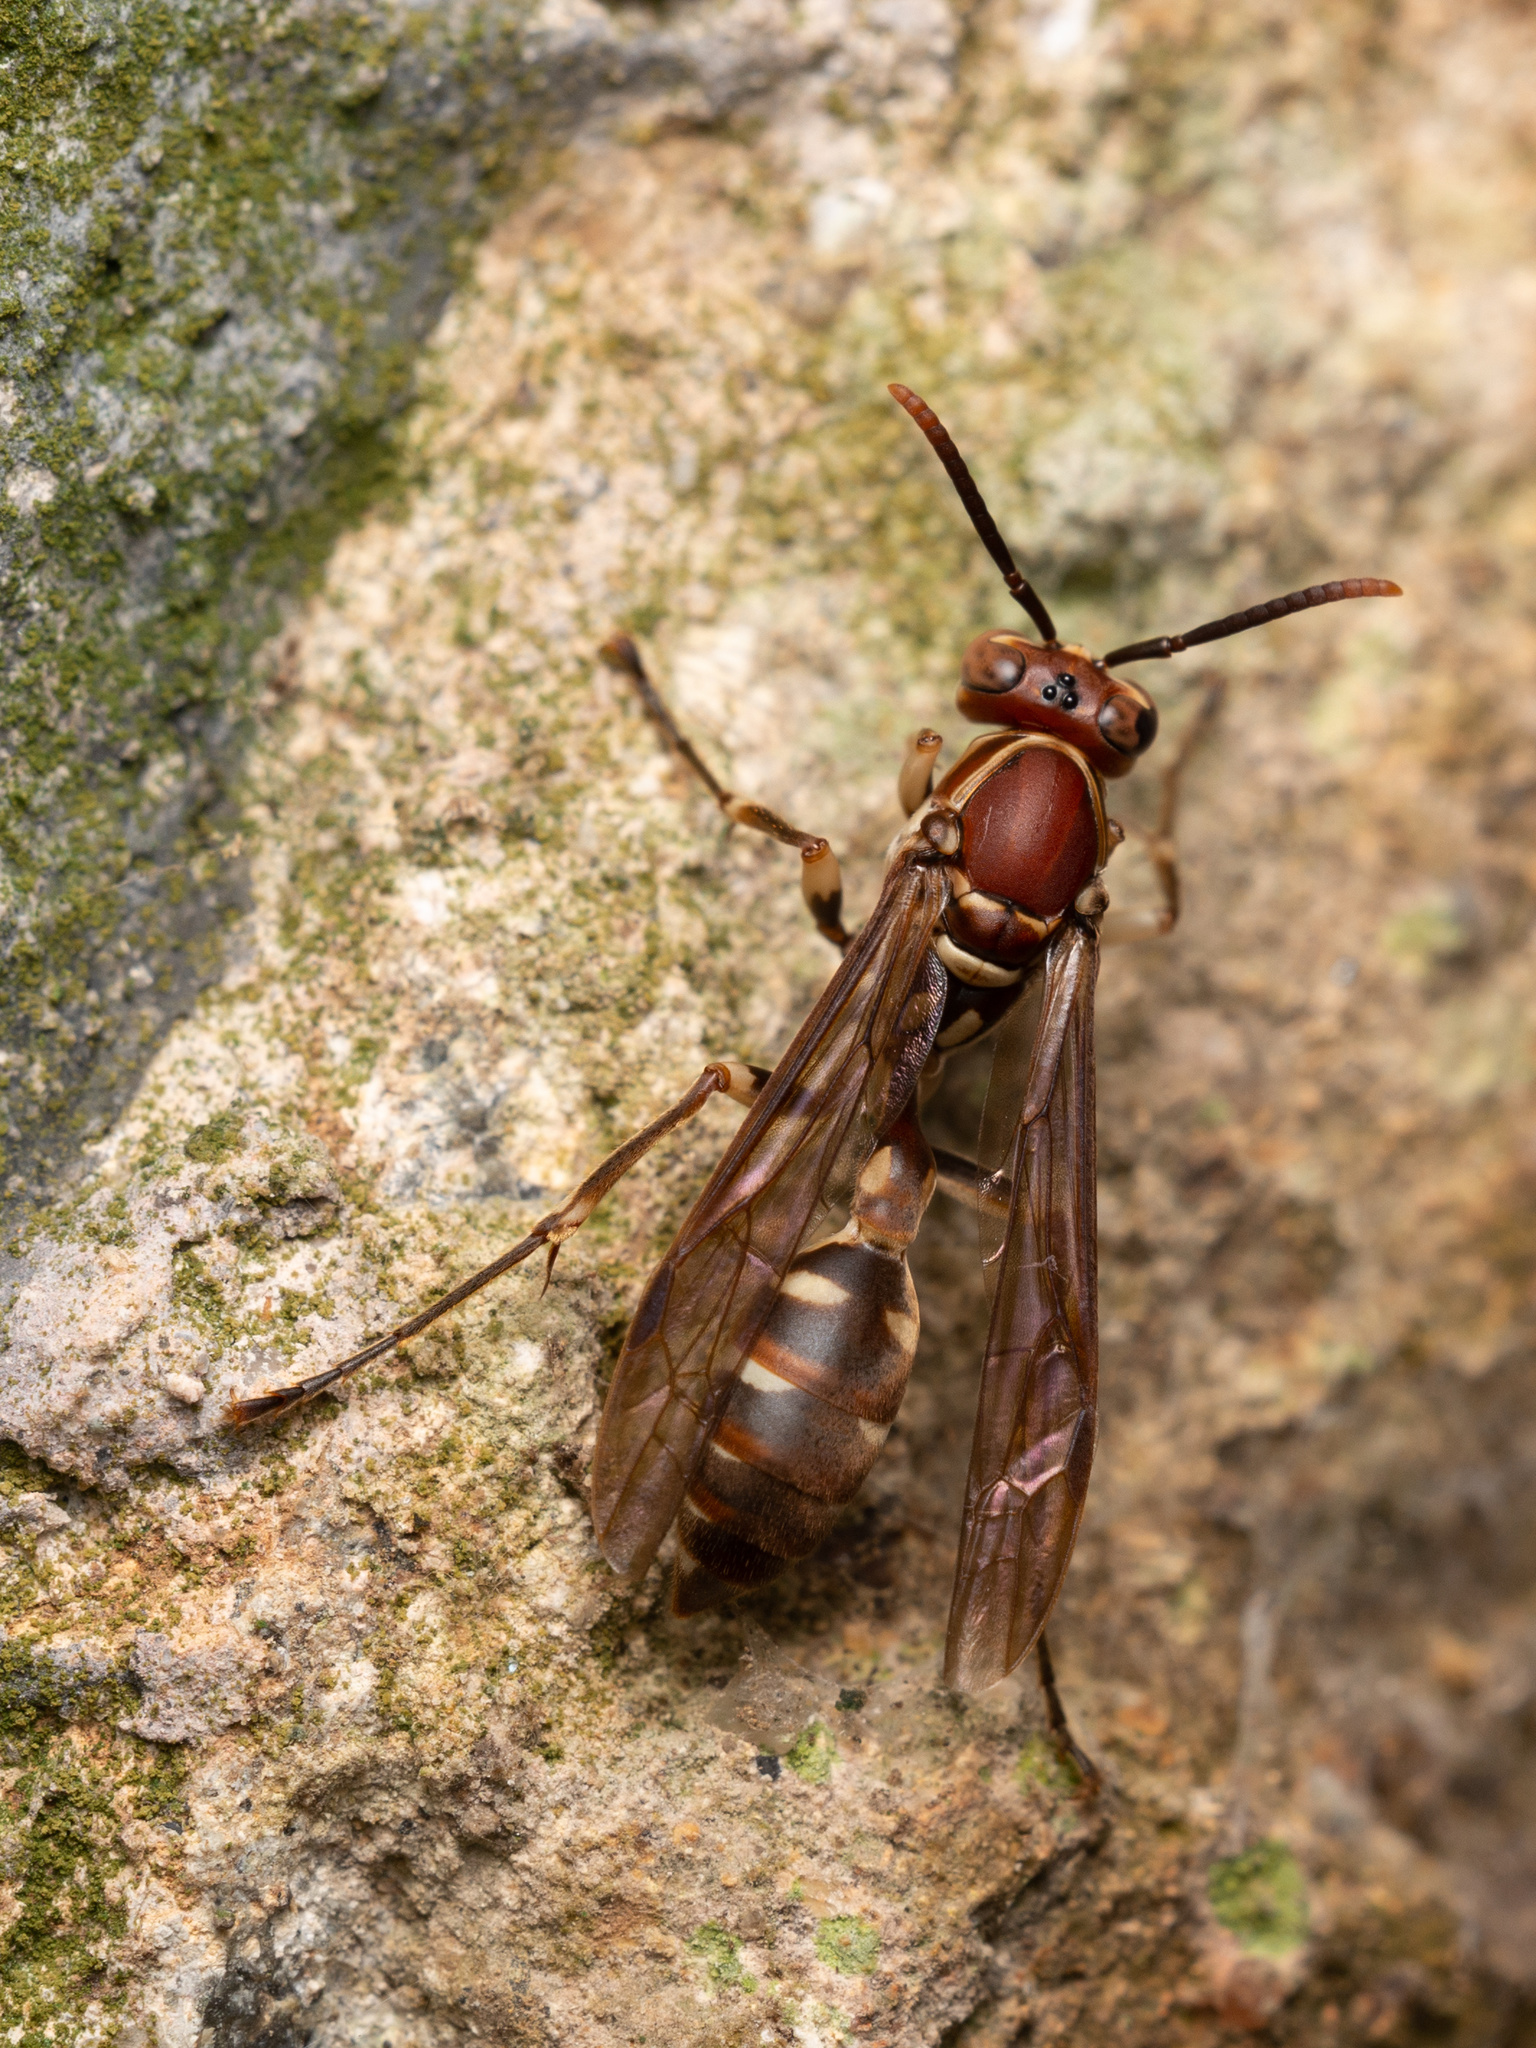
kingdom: Animalia
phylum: Arthropoda
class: Insecta
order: Hymenoptera
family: Vespidae
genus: Parapolybia
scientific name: Parapolybia nodosa
